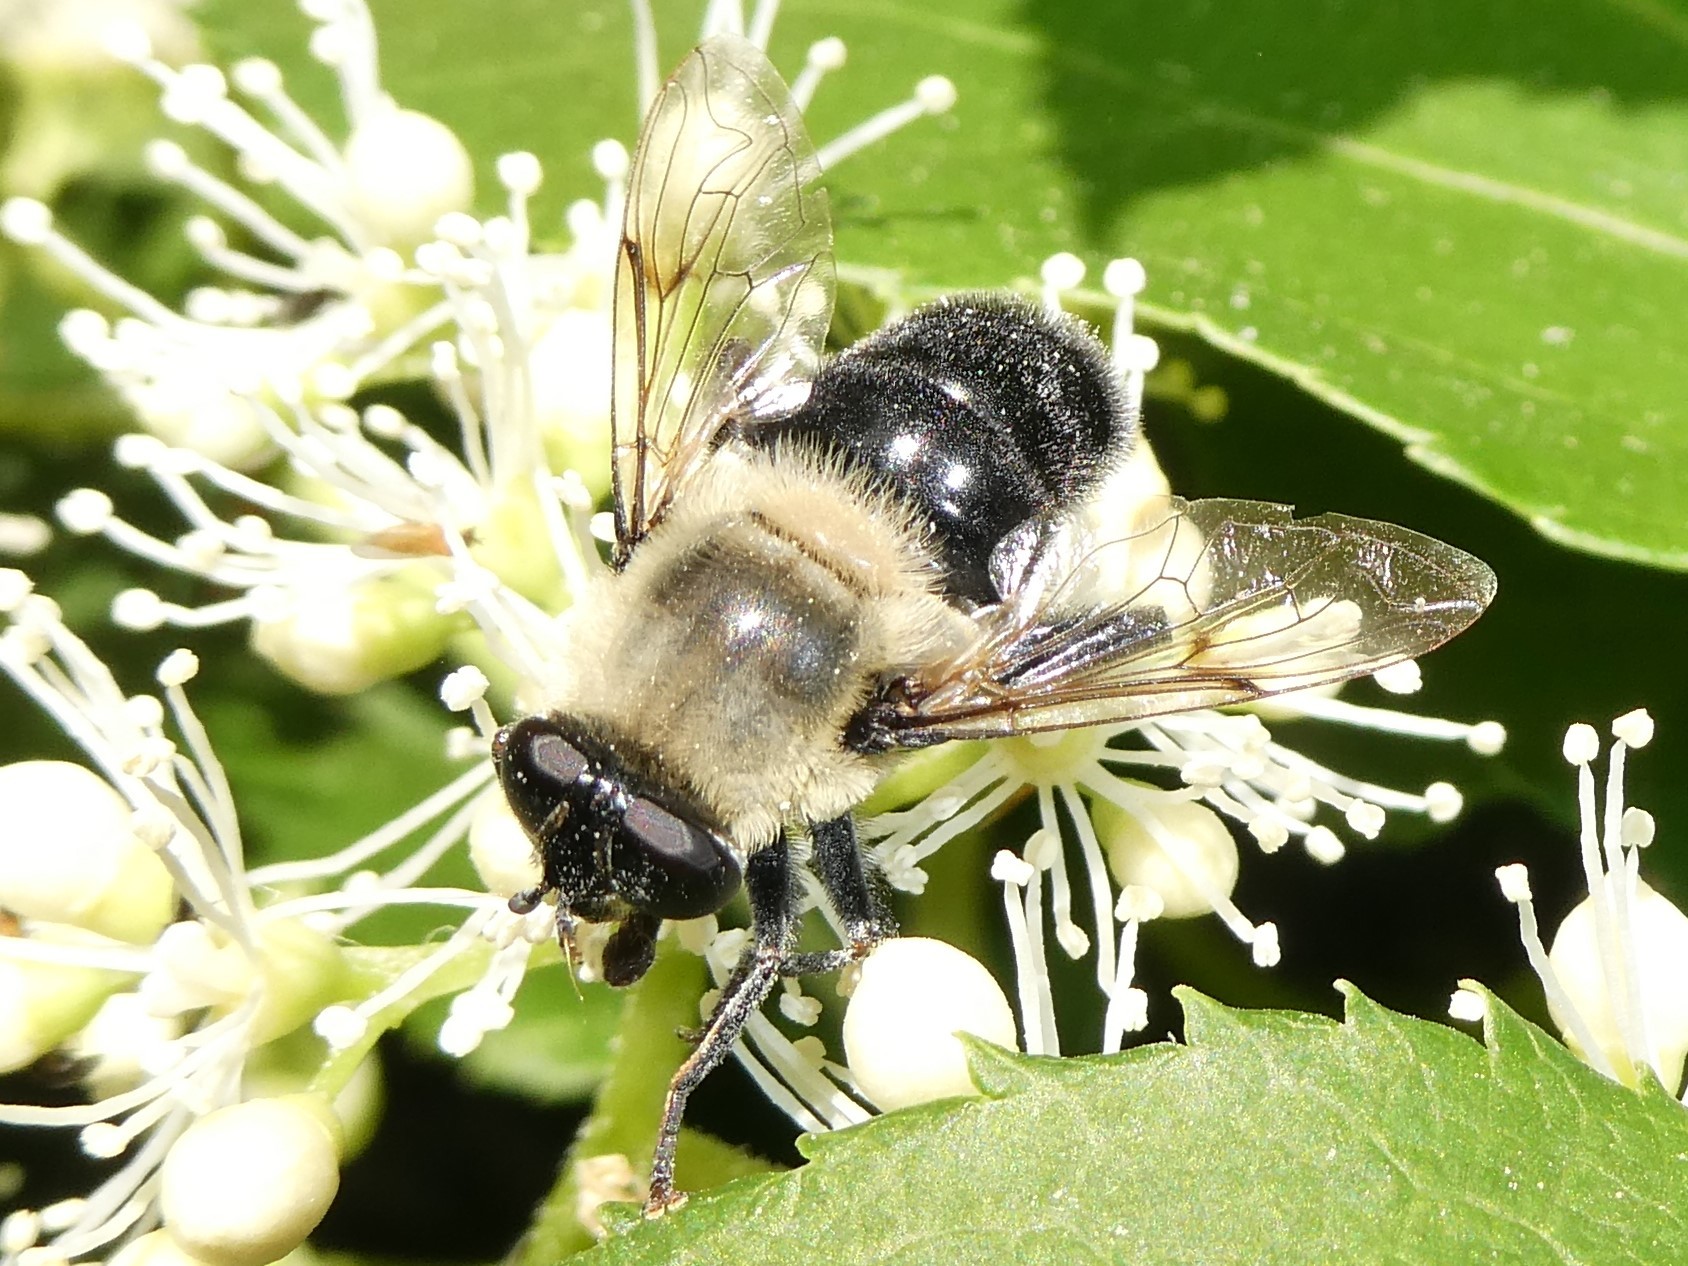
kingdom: Animalia
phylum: Arthropoda
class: Insecta
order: Diptera
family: Syrphidae
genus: Imatisma
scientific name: Imatisma bautias
